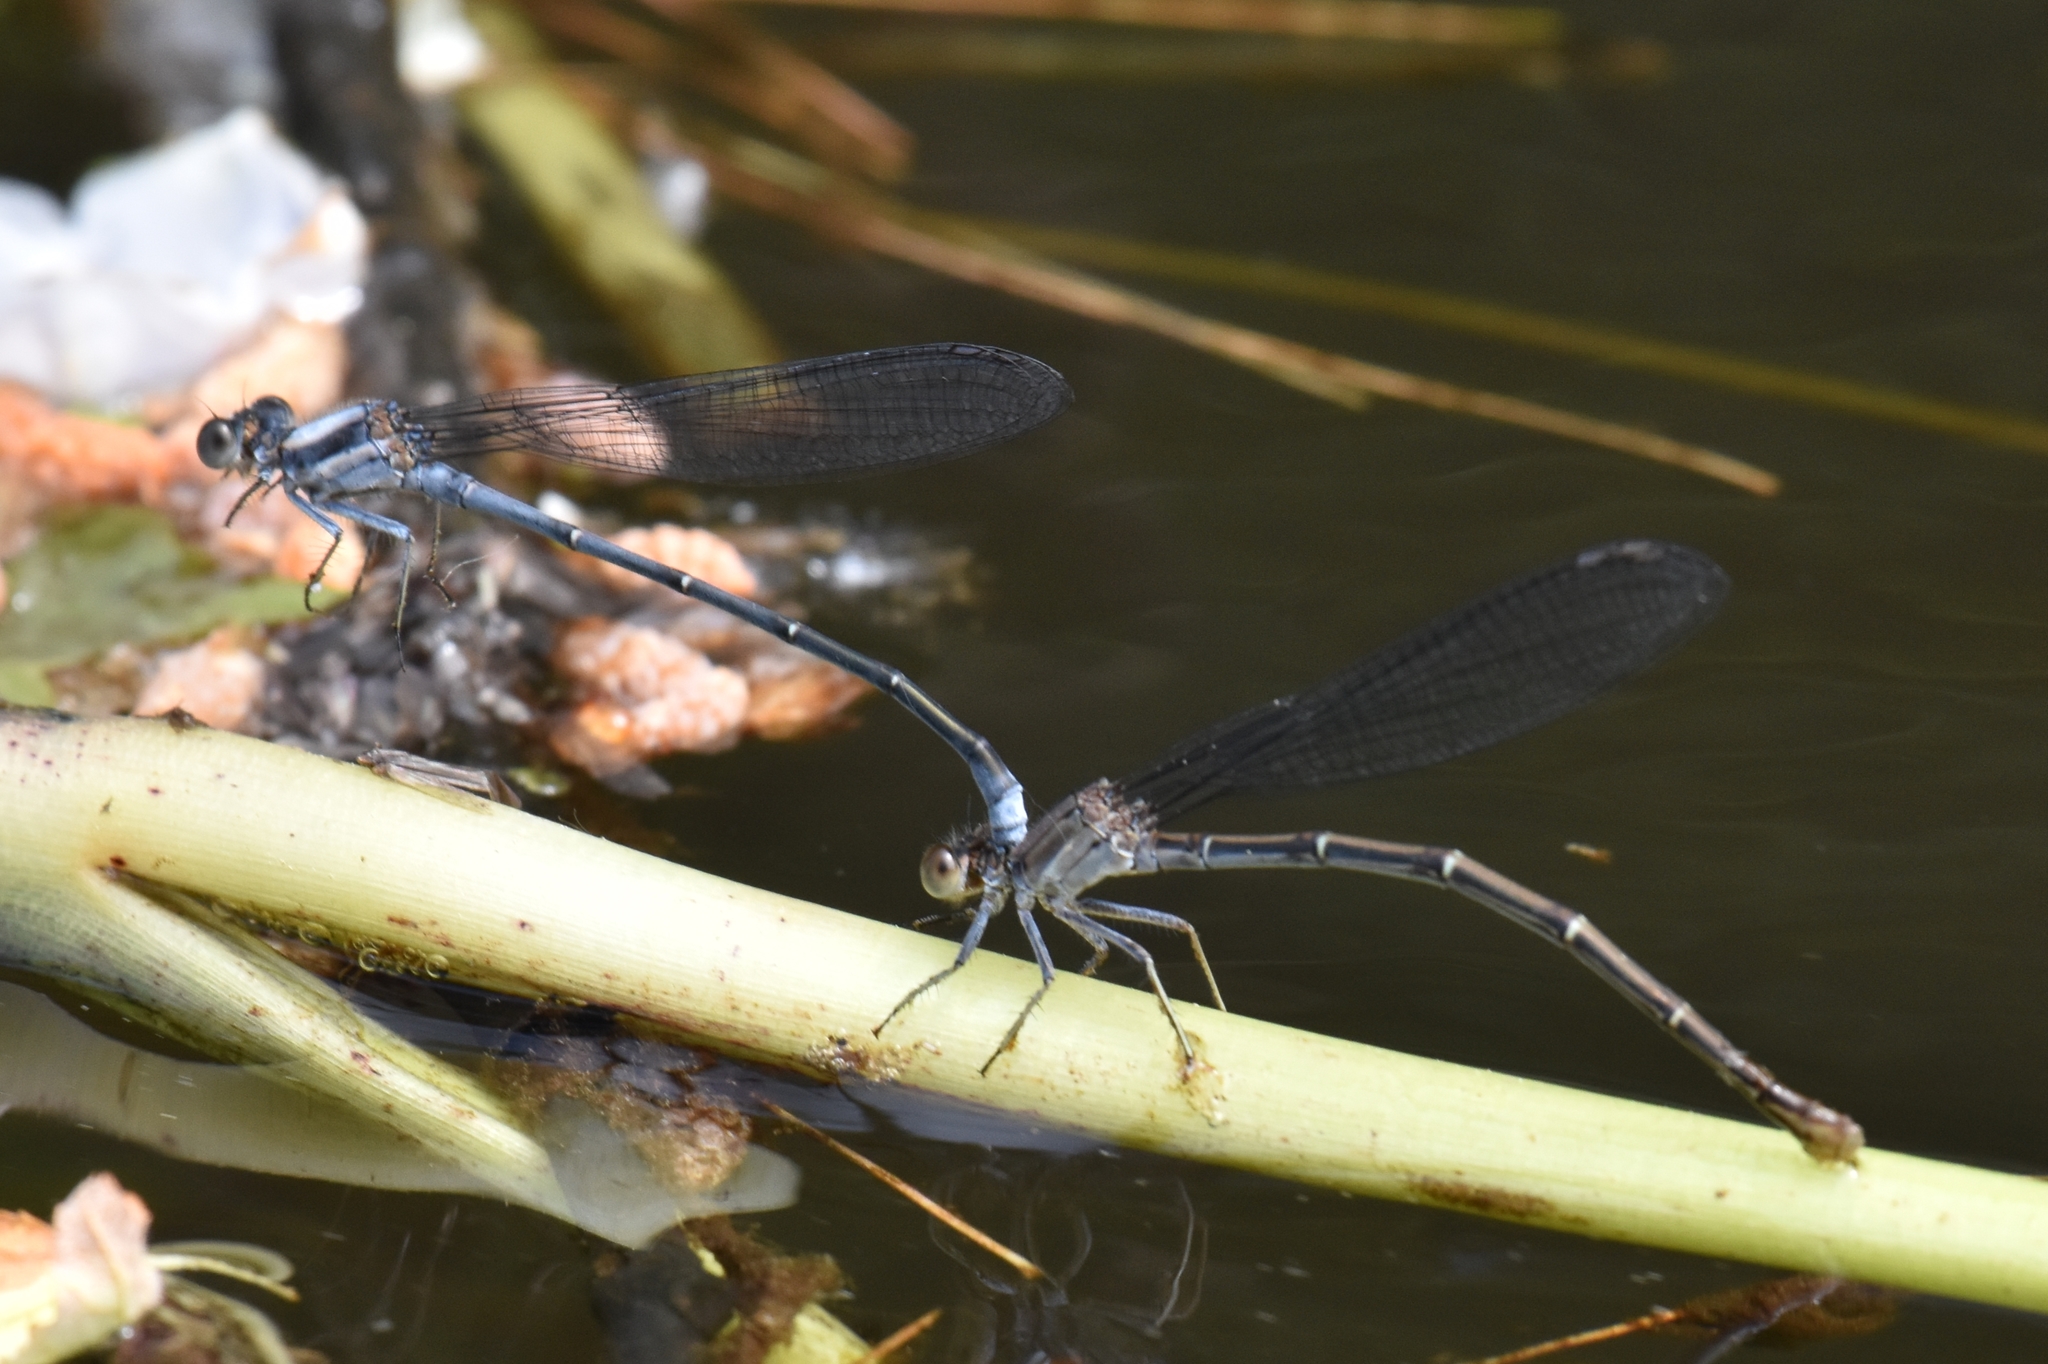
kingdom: Animalia
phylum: Arthropoda
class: Insecta
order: Odonata
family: Coenagrionidae
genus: Argia
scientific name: Argia moesta
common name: Powdered dancer
